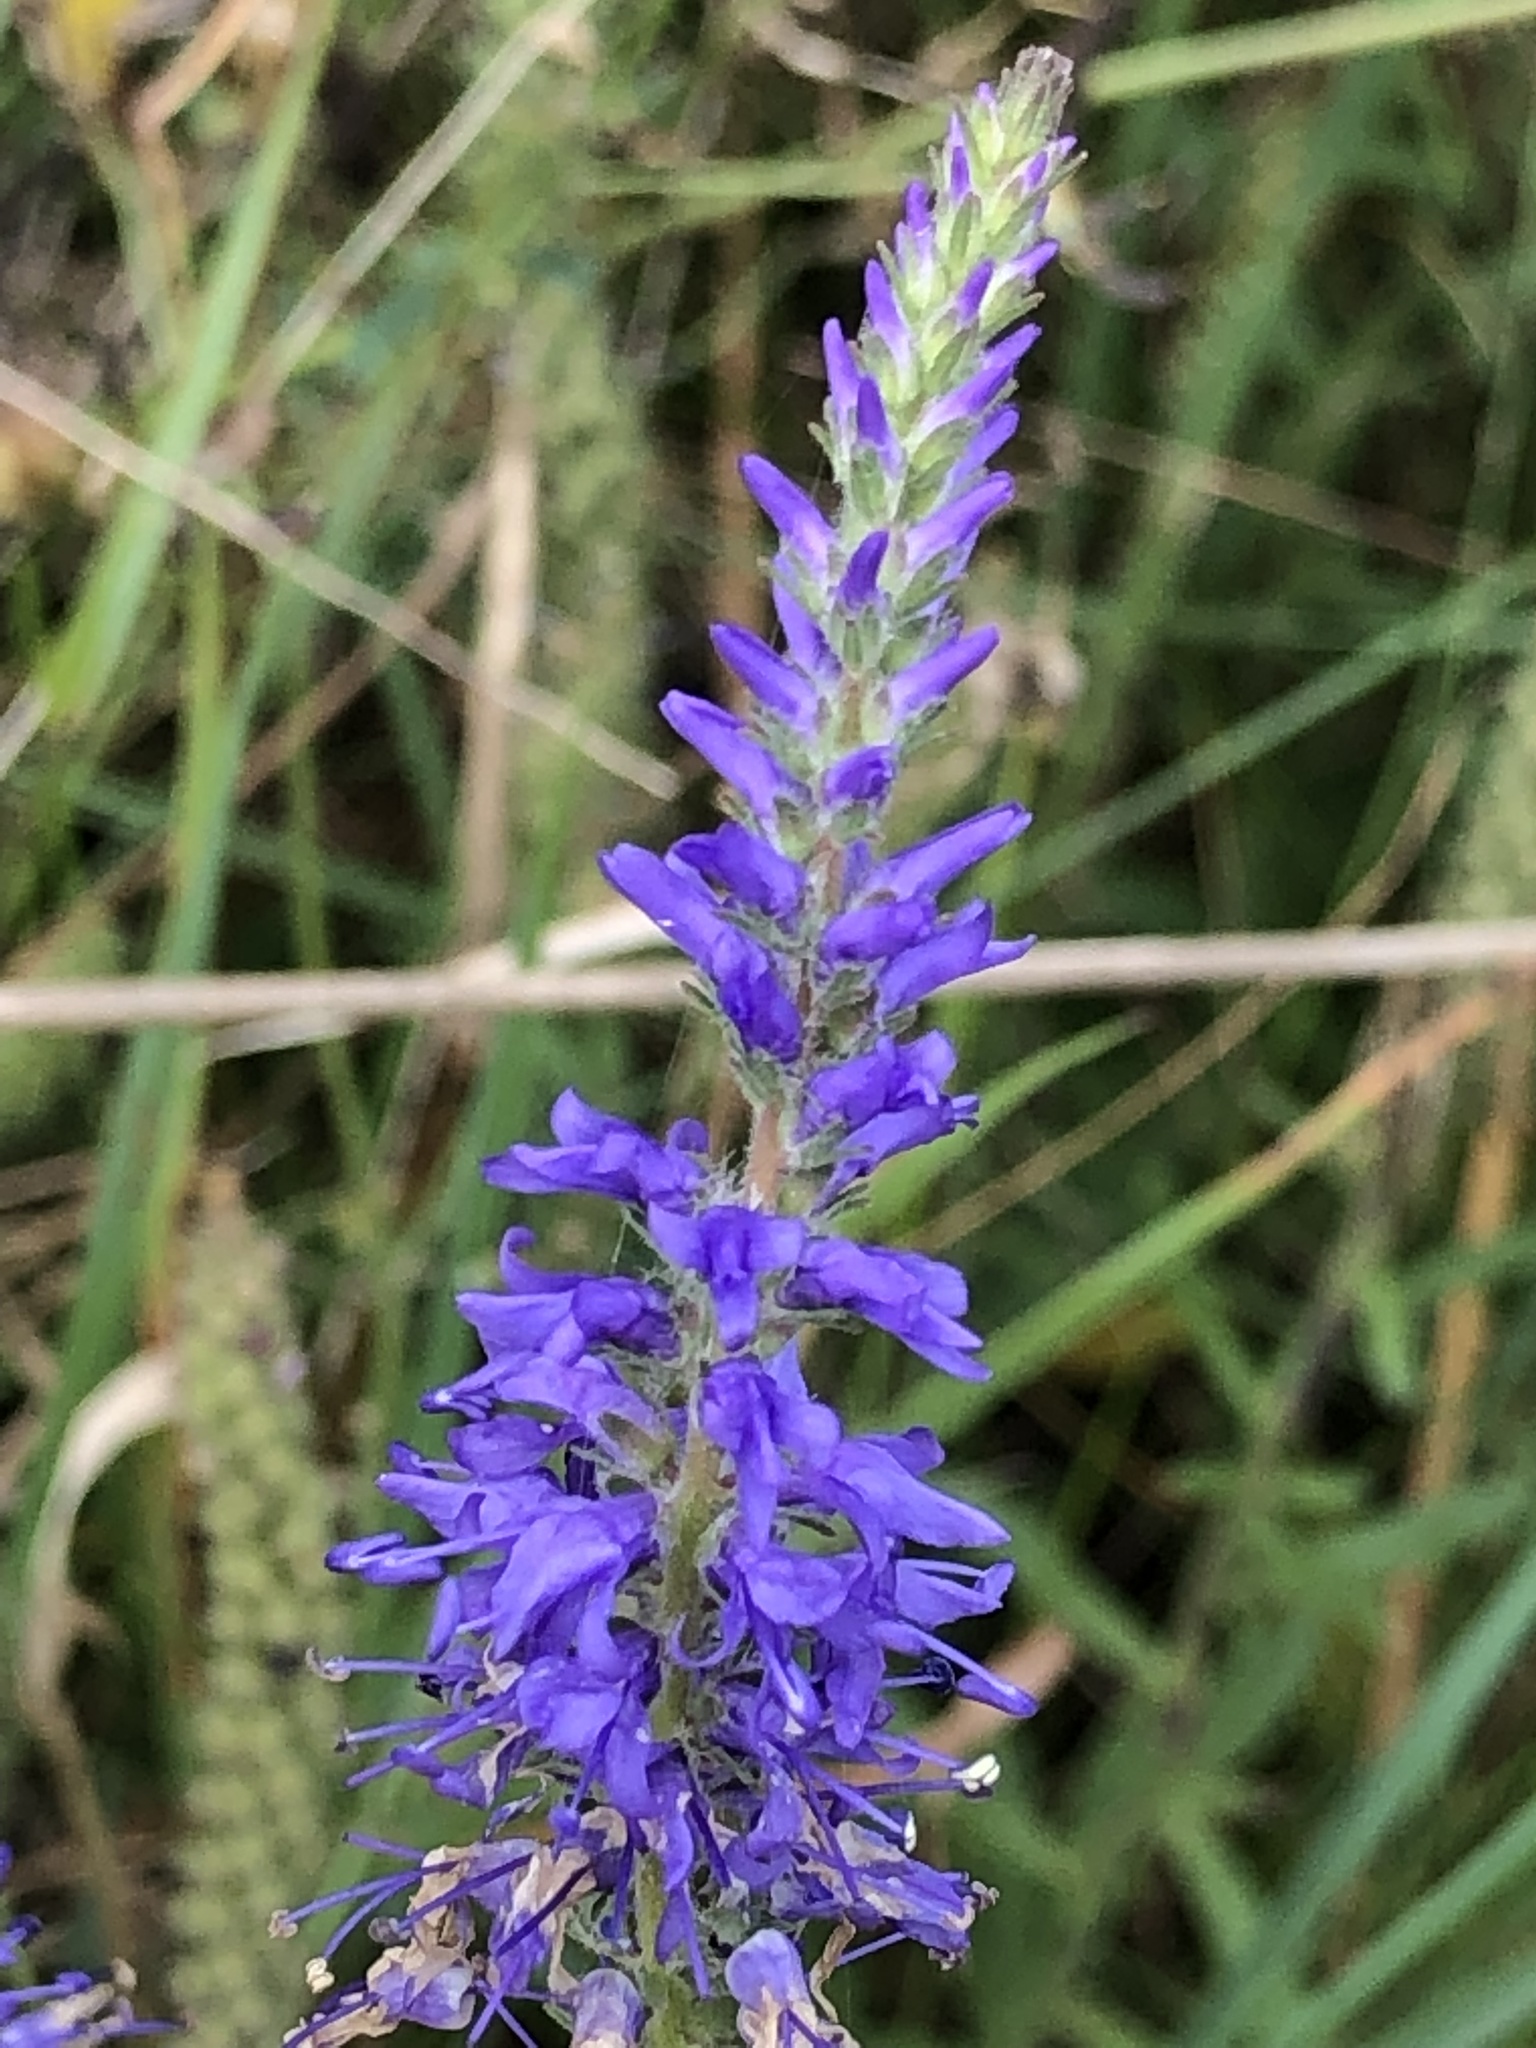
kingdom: Plantae
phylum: Tracheophyta
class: Magnoliopsida
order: Lamiales
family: Plantaginaceae
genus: Veronica
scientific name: Veronica spicata
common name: Spiked speedwell
